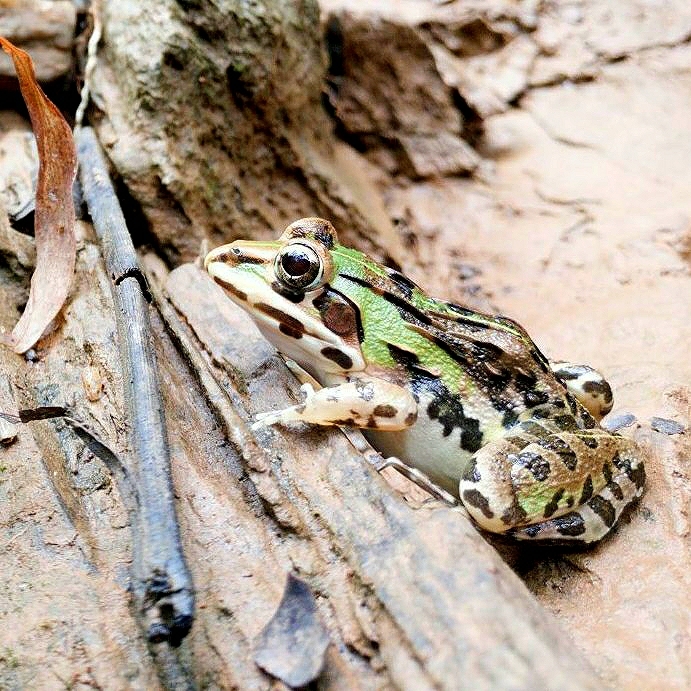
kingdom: Animalia
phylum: Chordata
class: Amphibia
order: Anura
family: Dicroglossidae
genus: Hoplobatrachus
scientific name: Hoplobatrachus tigerinus
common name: Indian bullfrog
